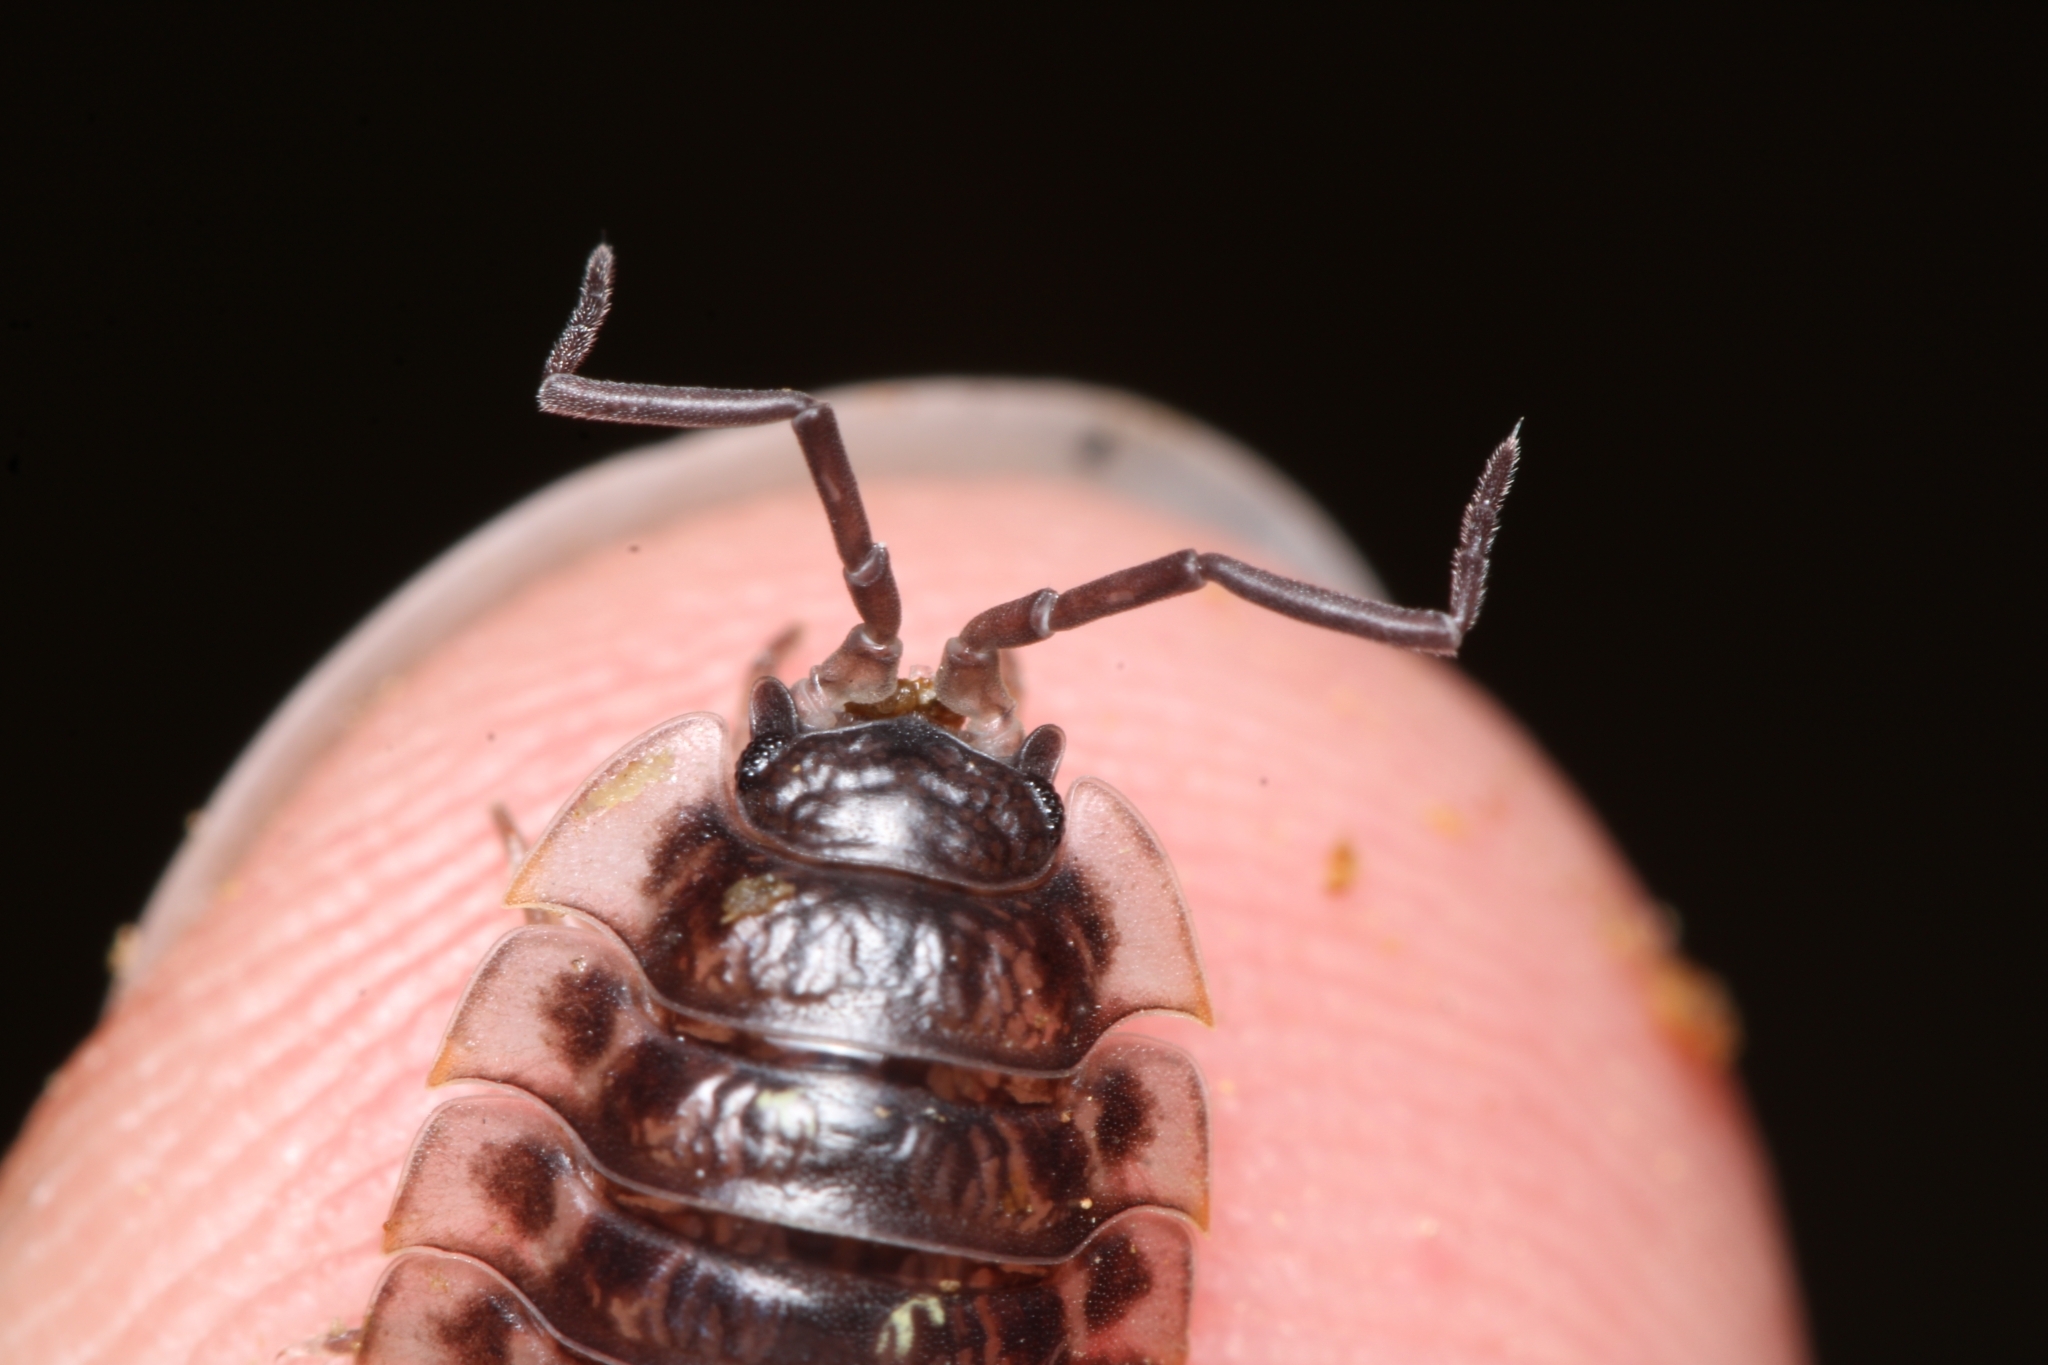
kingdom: Animalia
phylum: Arthropoda
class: Malacostraca
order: Isopoda
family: Oniscidae
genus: Oniscus
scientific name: Oniscus asellus
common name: Common shiny woodlouse
